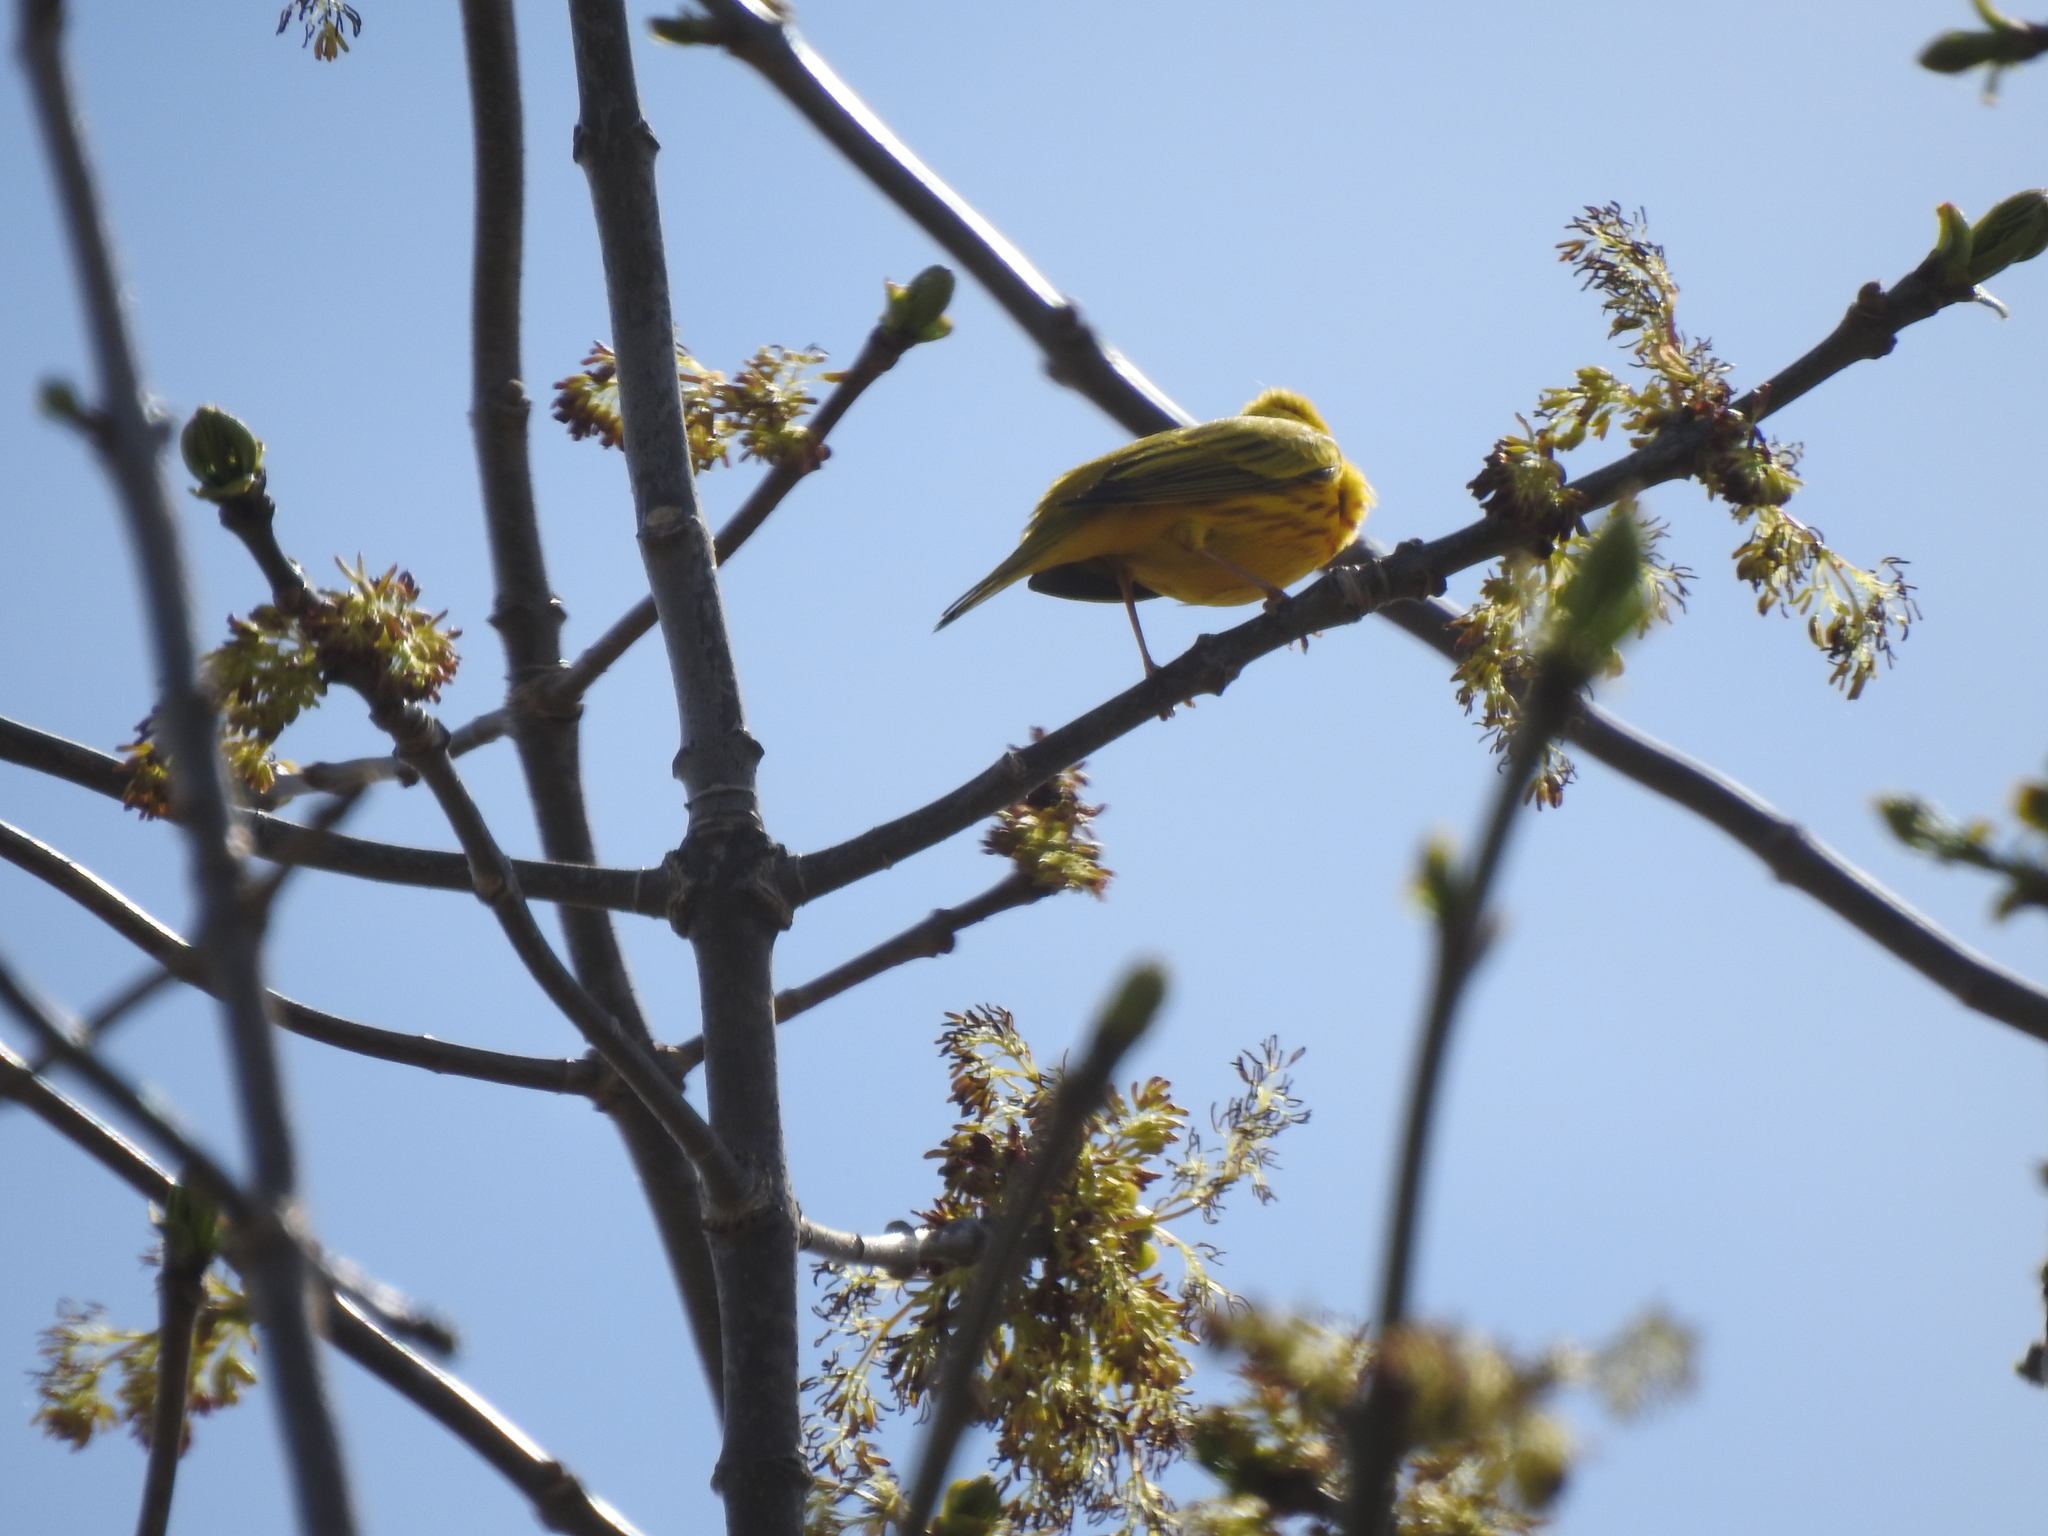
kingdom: Animalia
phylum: Chordata
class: Aves
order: Passeriformes
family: Parulidae
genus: Setophaga
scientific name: Setophaga petechia
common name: Yellow warbler
